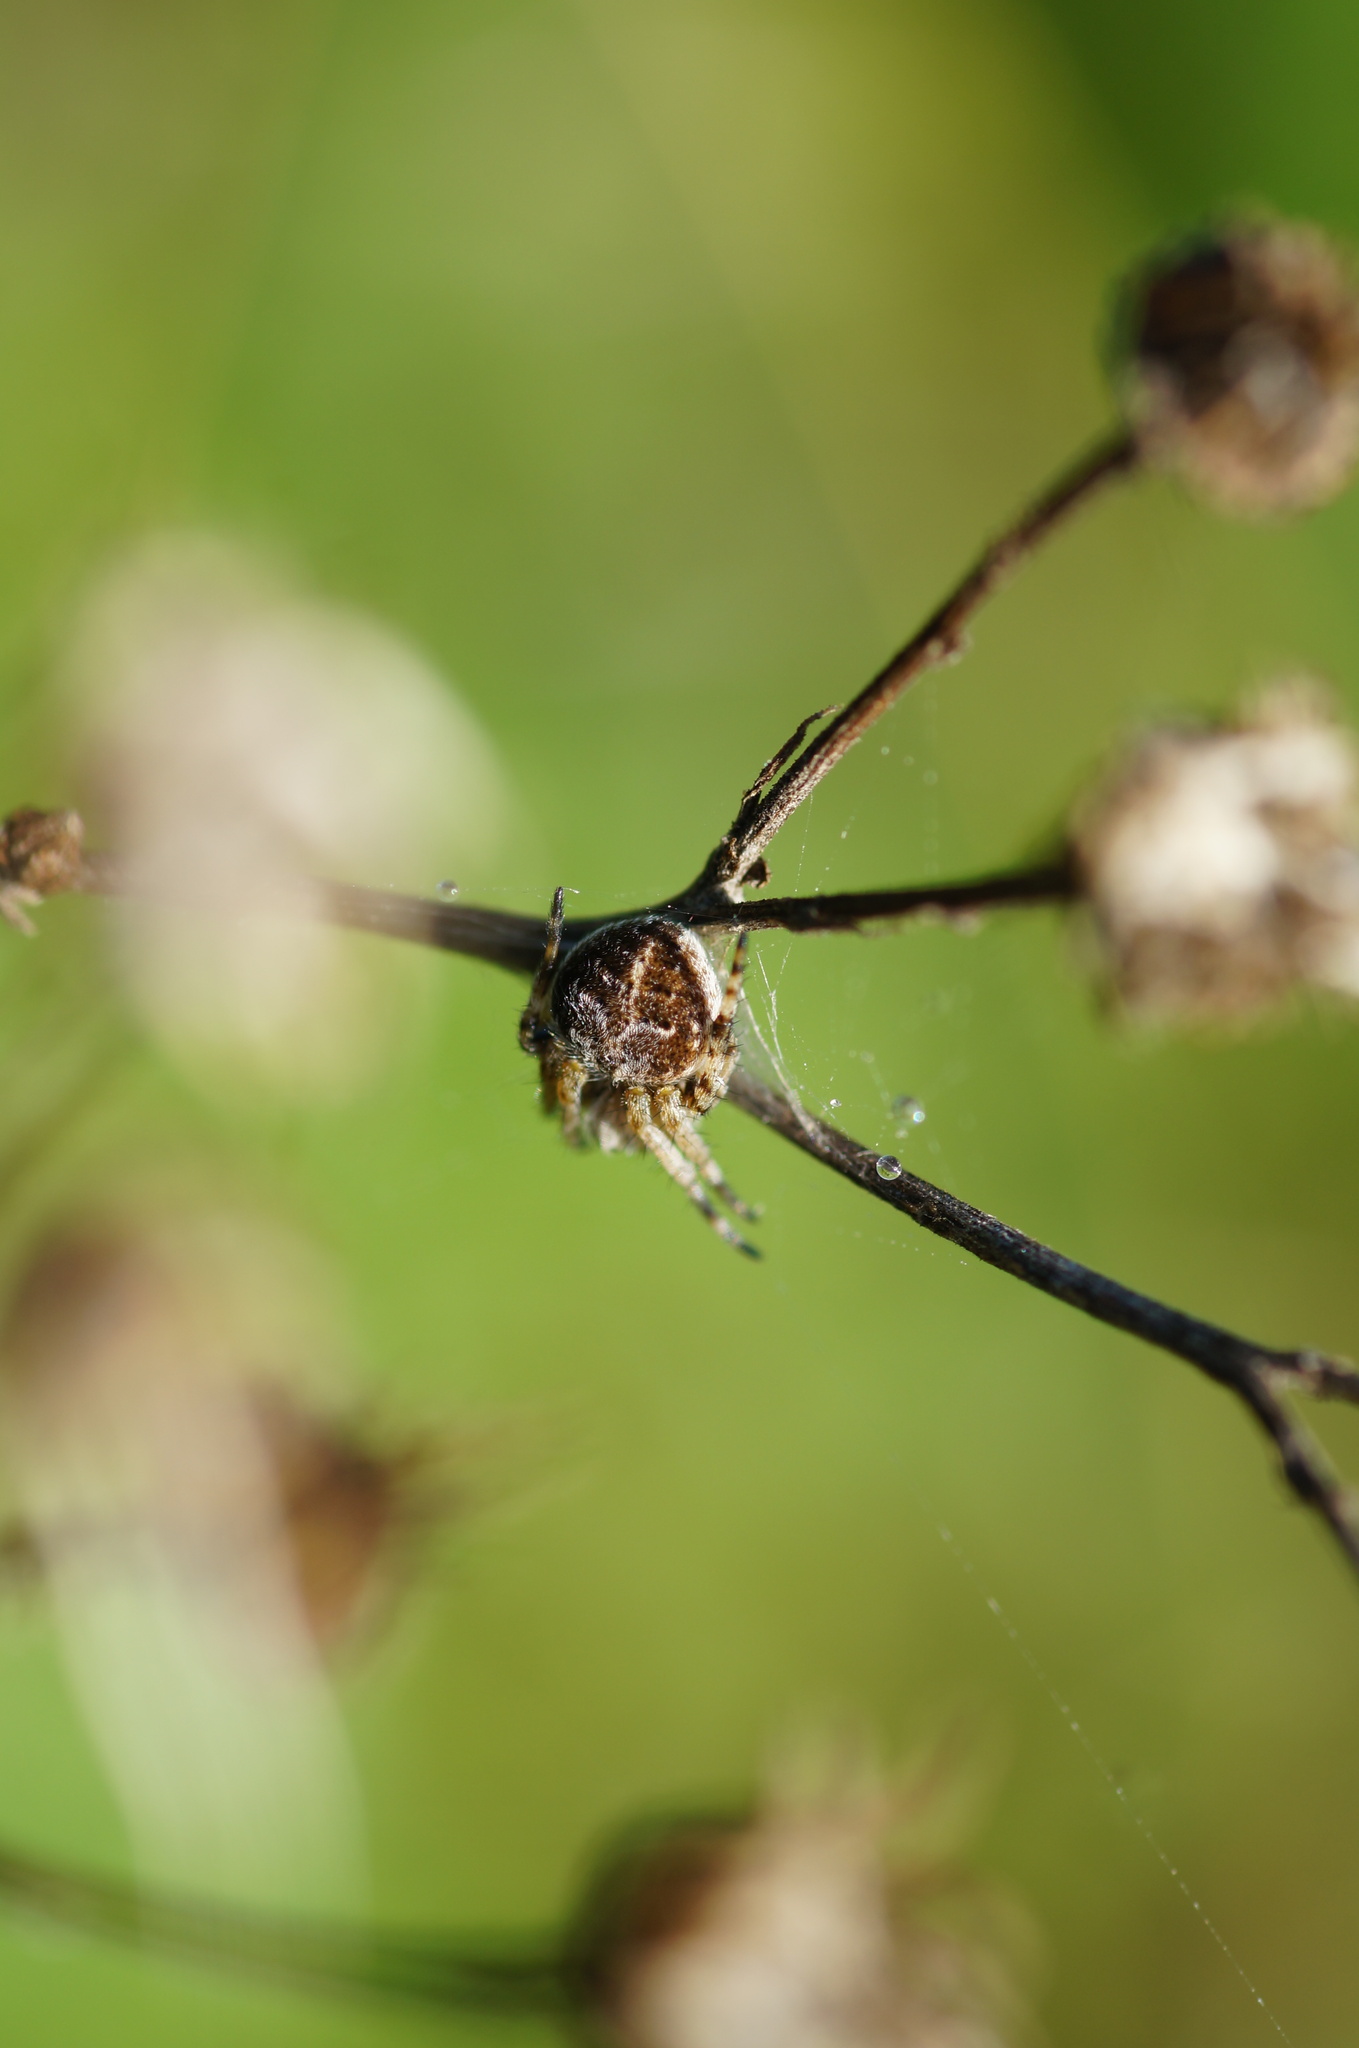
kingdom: Animalia
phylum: Arthropoda
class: Arachnida
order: Araneae
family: Araneidae
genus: Agalenatea
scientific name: Agalenatea redii
